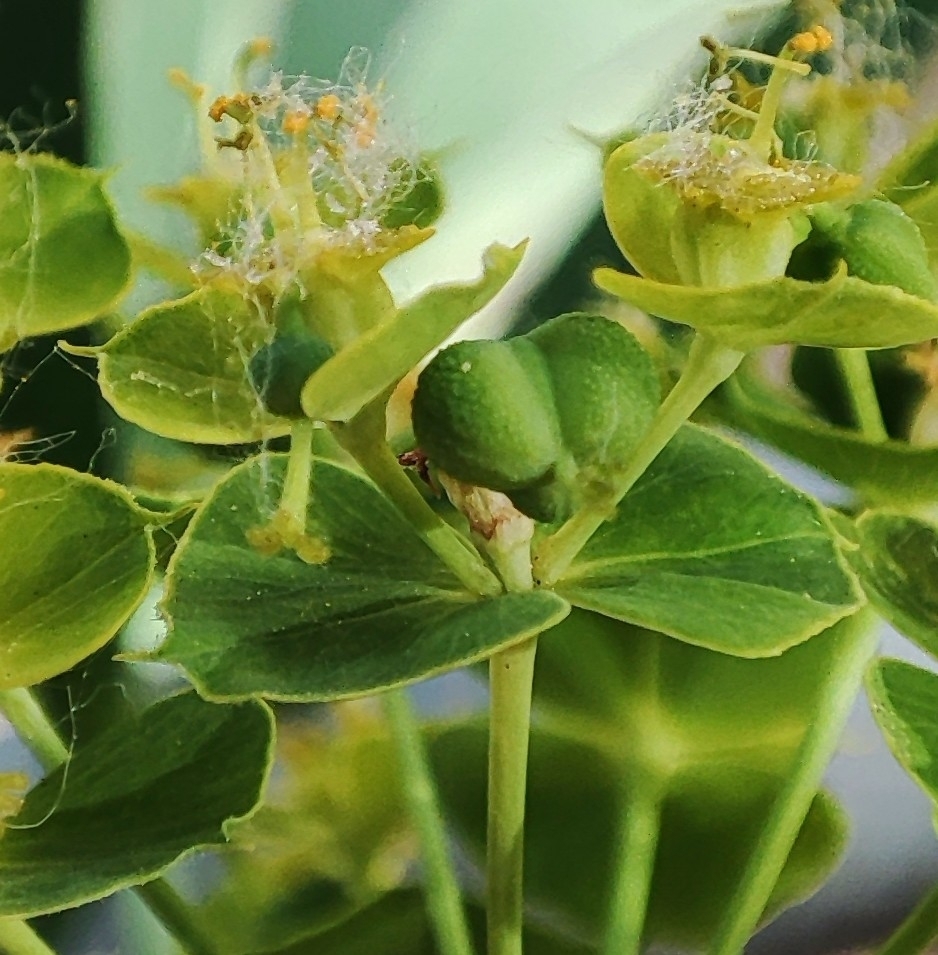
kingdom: Plantae
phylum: Tracheophyta
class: Magnoliopsida
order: Malpighiales
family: Euphorbiaceae
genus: Euphorbia
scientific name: Euphorbia virgata
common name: Leafy spurge
